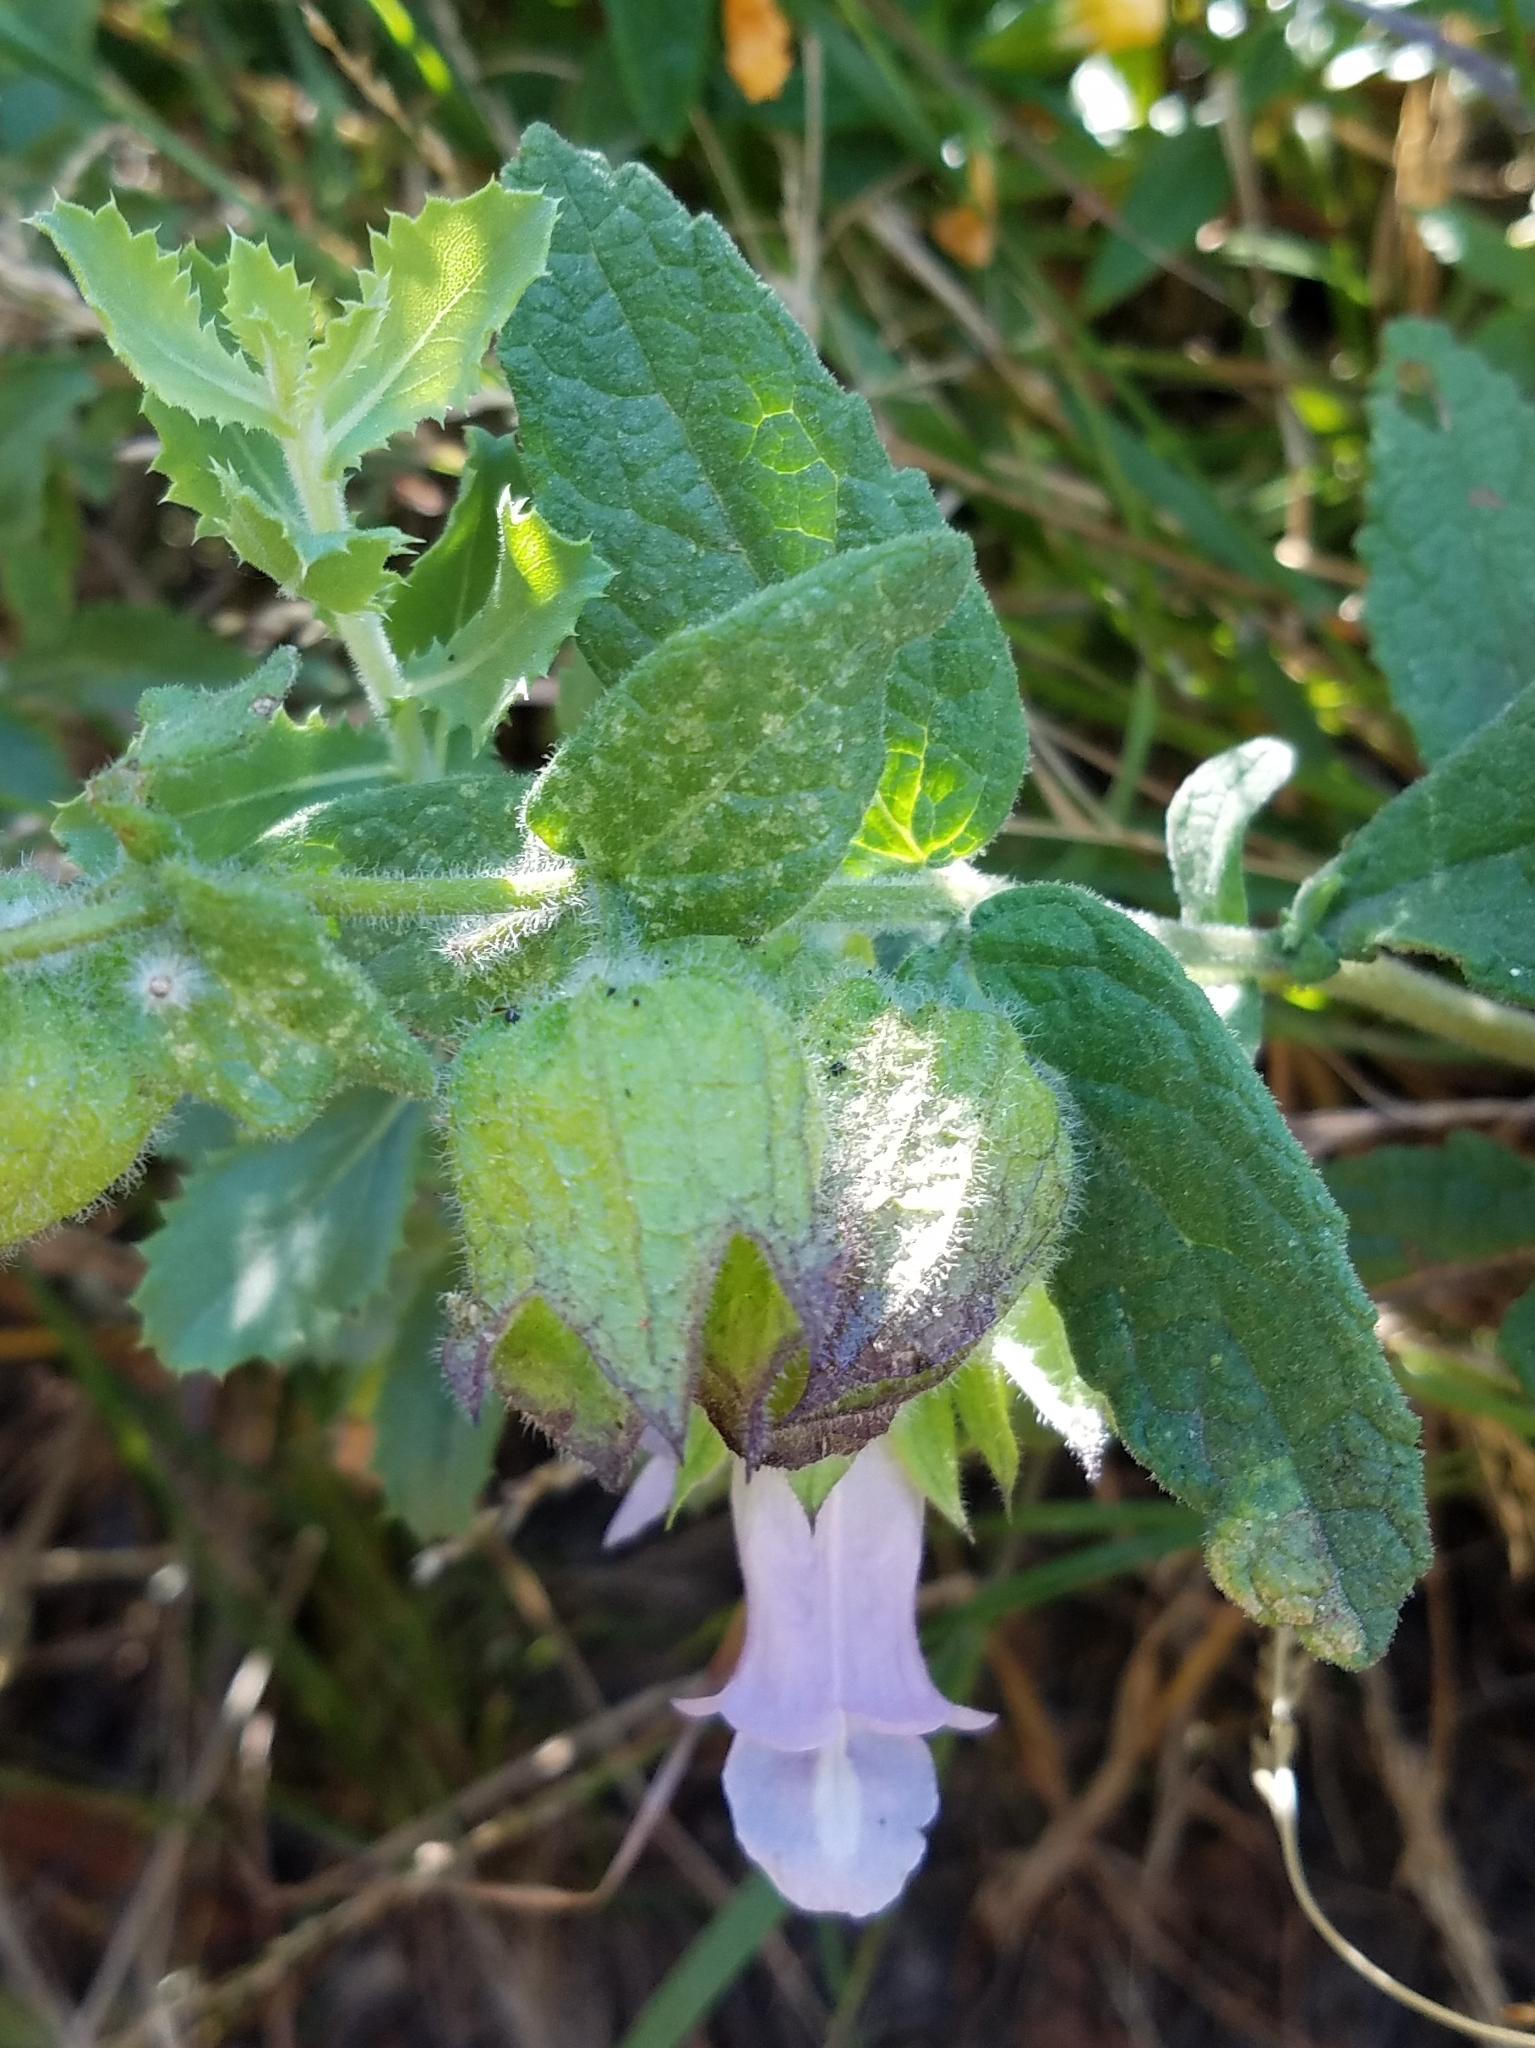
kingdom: Plantae
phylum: Tracheophyta
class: Magnoliopsida
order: Lamiales
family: Lamiaceae
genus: Lepechinia
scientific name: Lepechinia calycina
